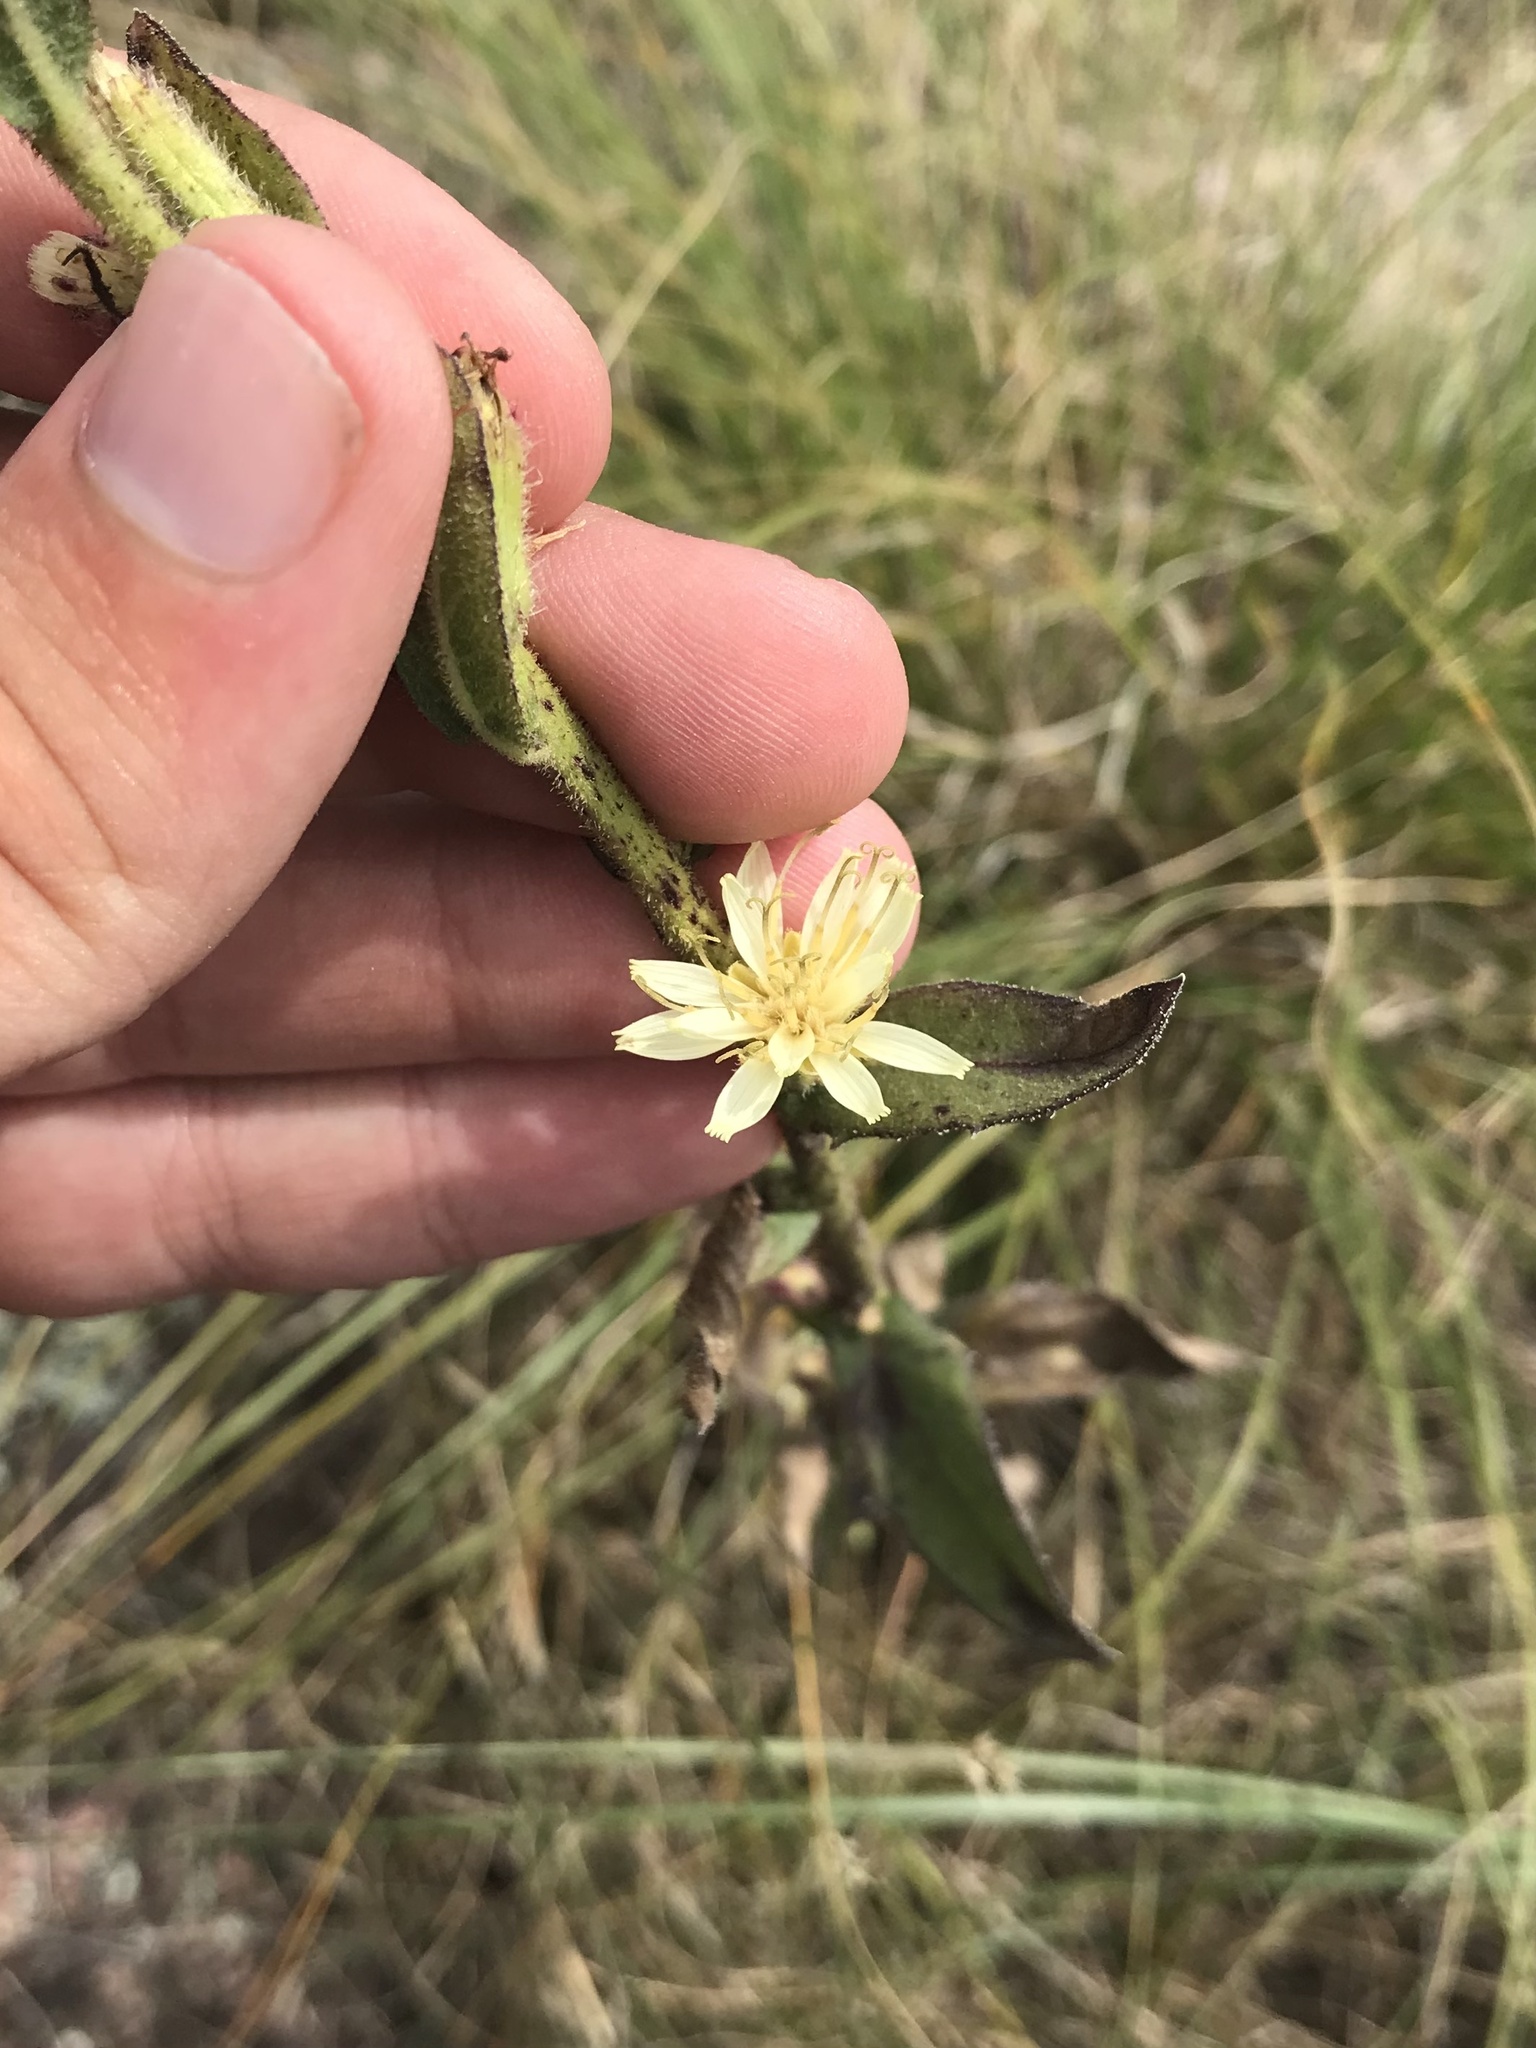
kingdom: Plantae
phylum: Tracheophyta
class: Magnoliopsida
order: Asterales
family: Asteraceae
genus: Nabalus
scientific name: Nabalus asper
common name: Rough rattlesnakeroot
